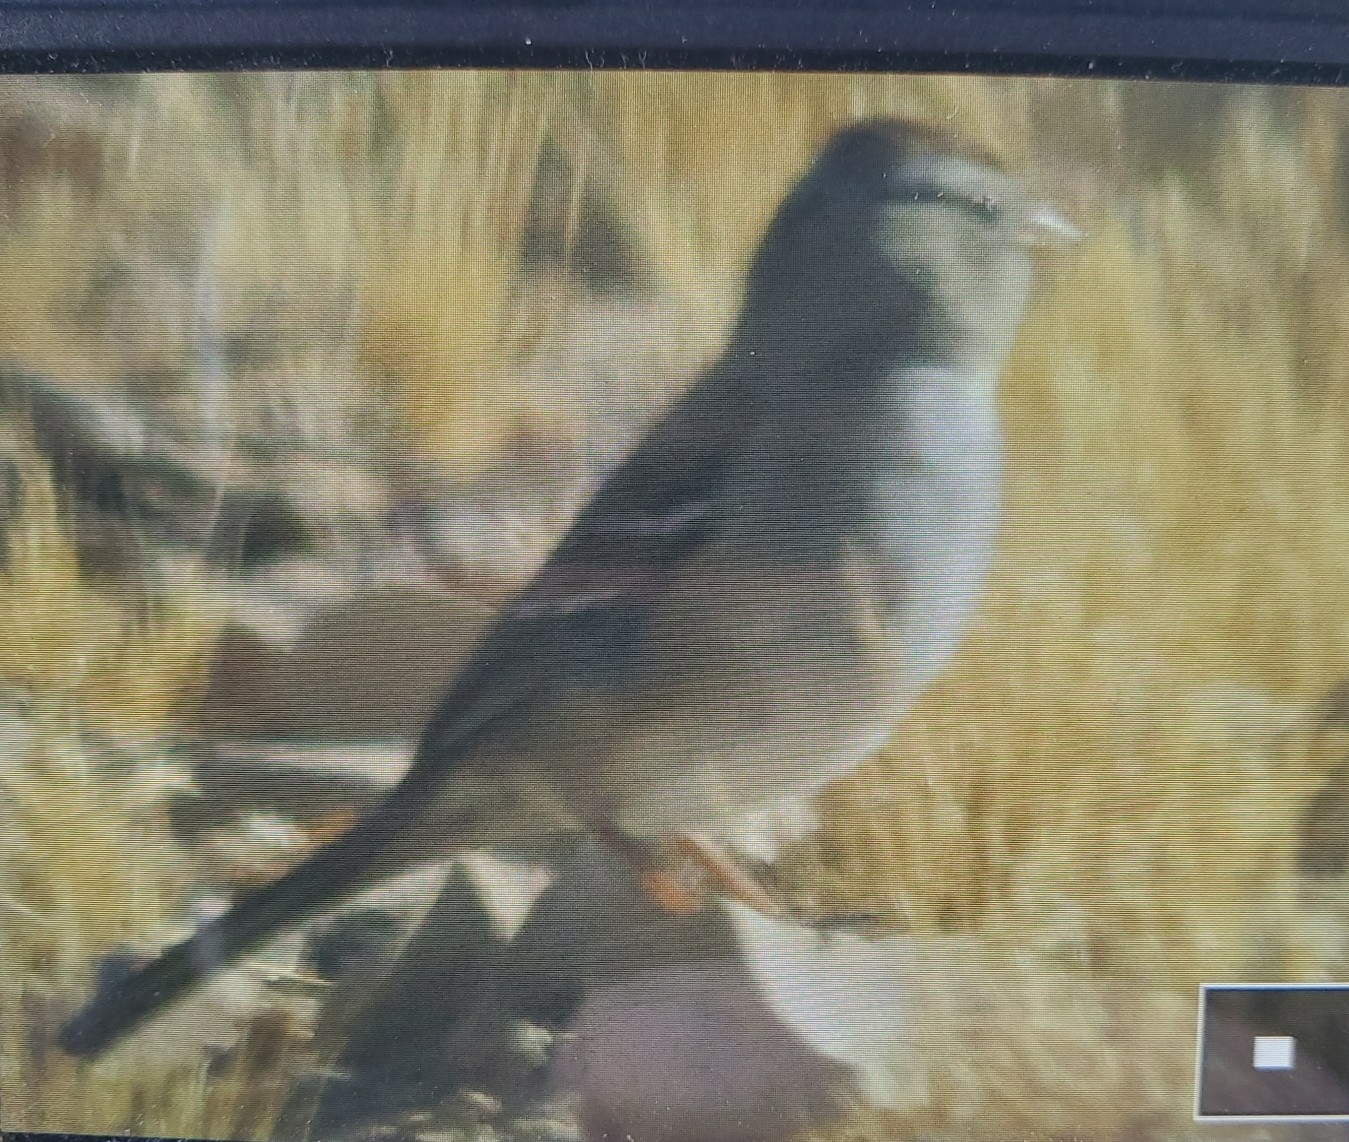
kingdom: Animalia
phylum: Chordata
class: Aves
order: Passeriformes
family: Passerellidae
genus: Zonotrichia
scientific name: Zonotrichia leucophrys
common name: White-crowned sparrow
